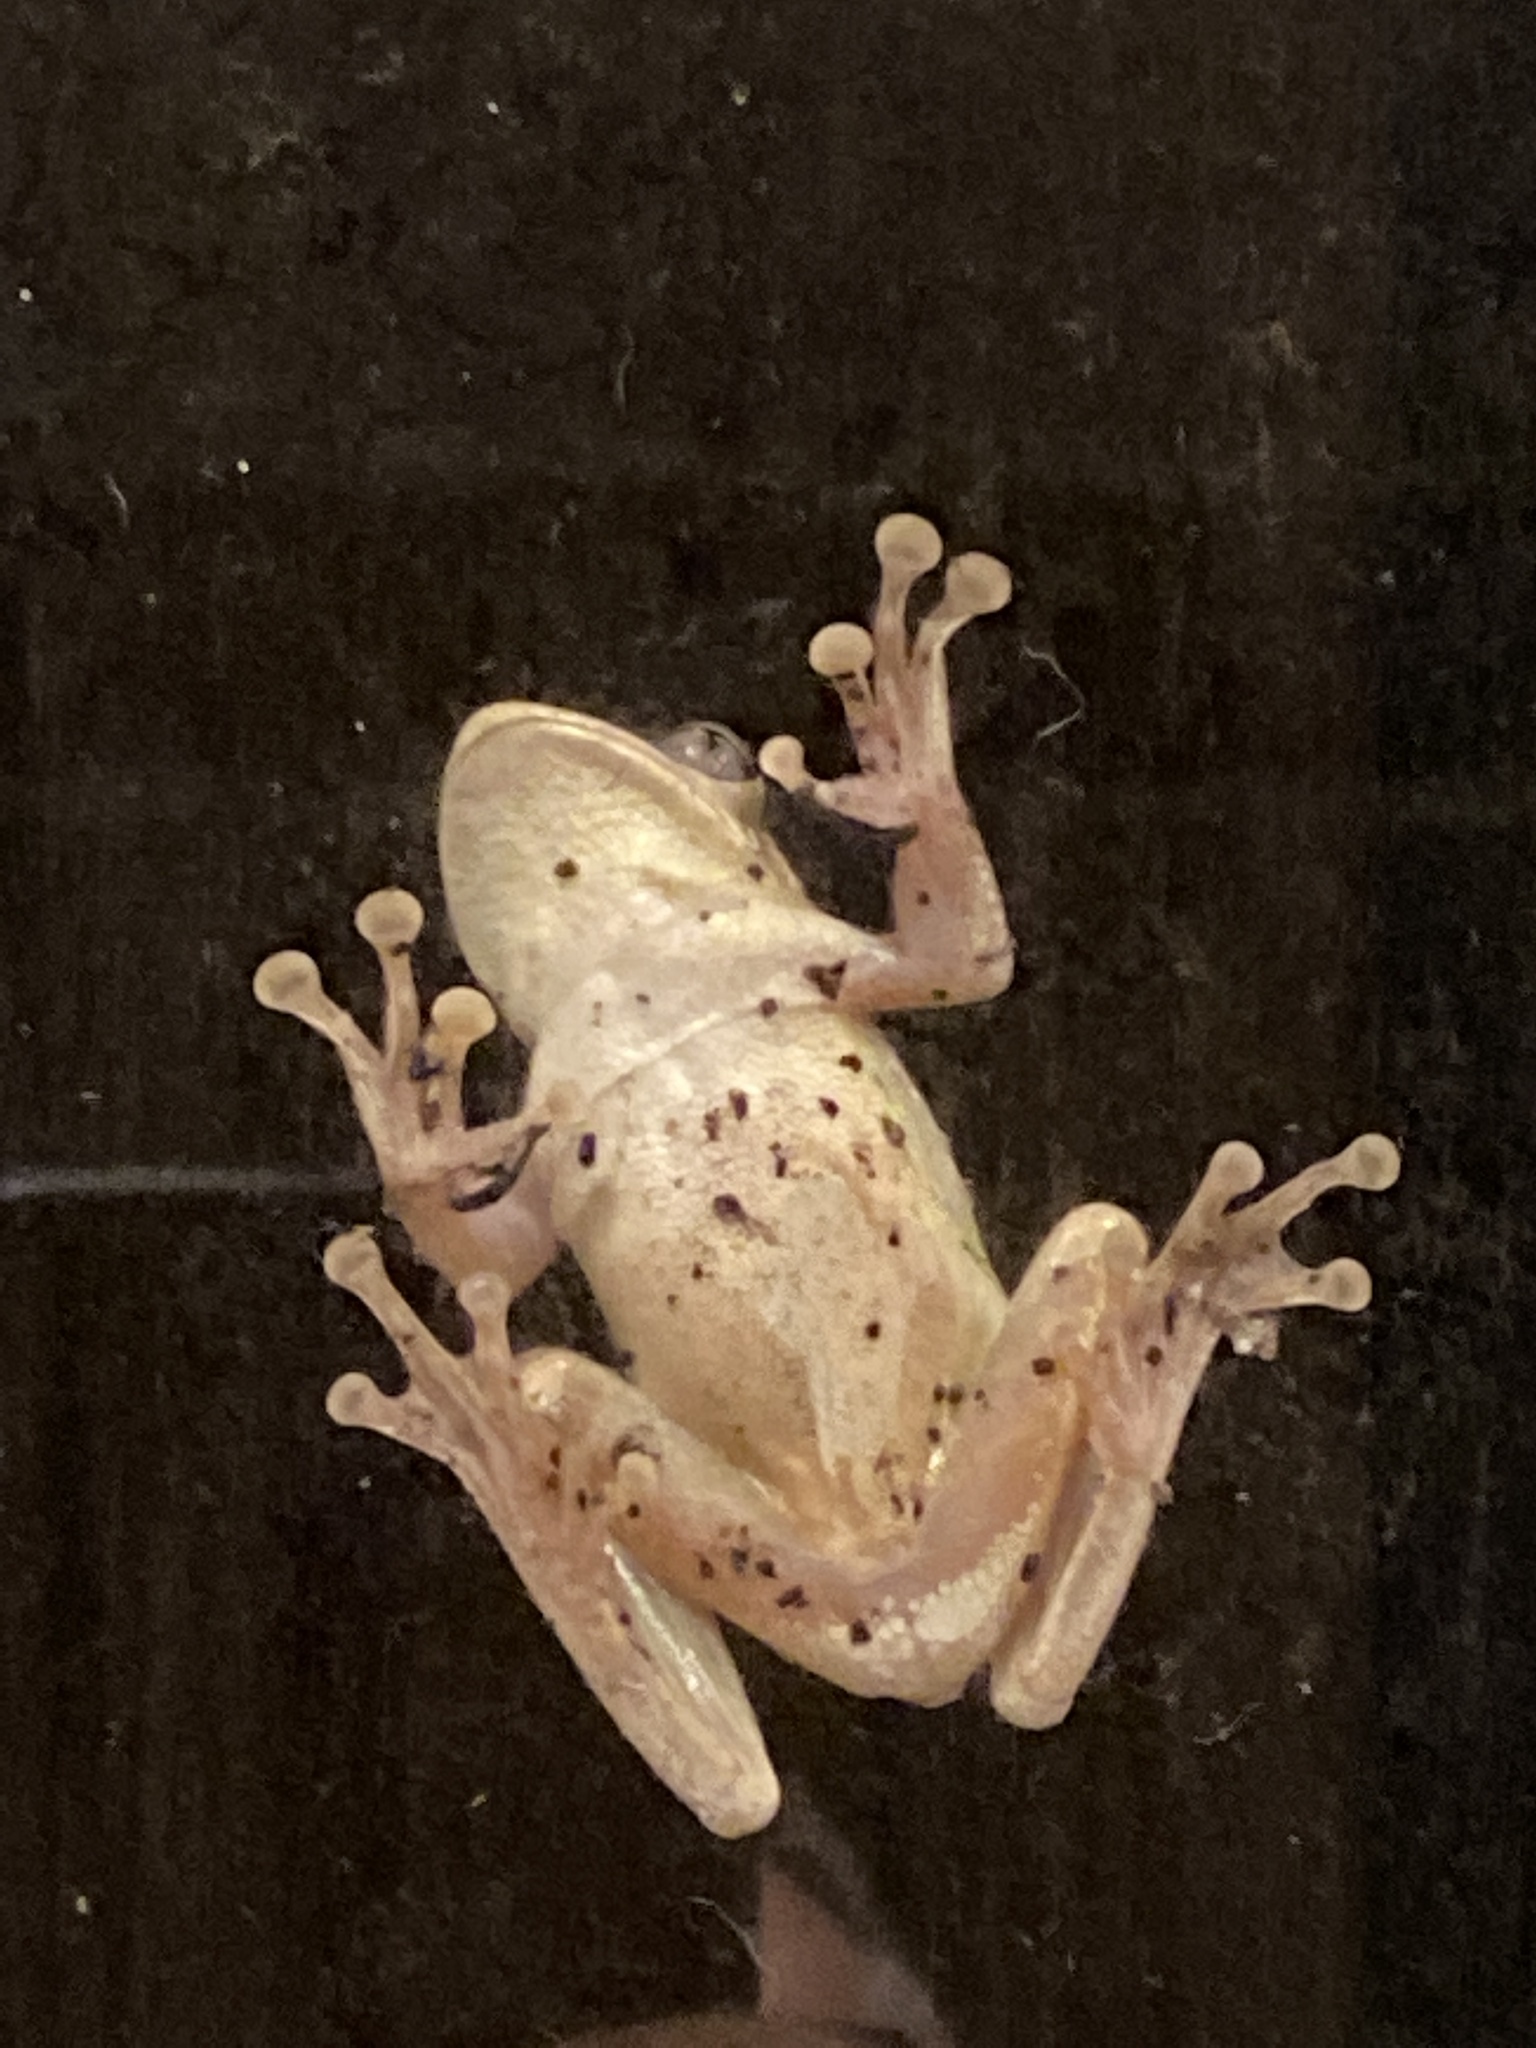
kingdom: Animalia
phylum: Chordata
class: Amphibia
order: Anura
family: Hylidae
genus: Osteopilus
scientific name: Osteopilus septentrionalis
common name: Cuban treefrog
